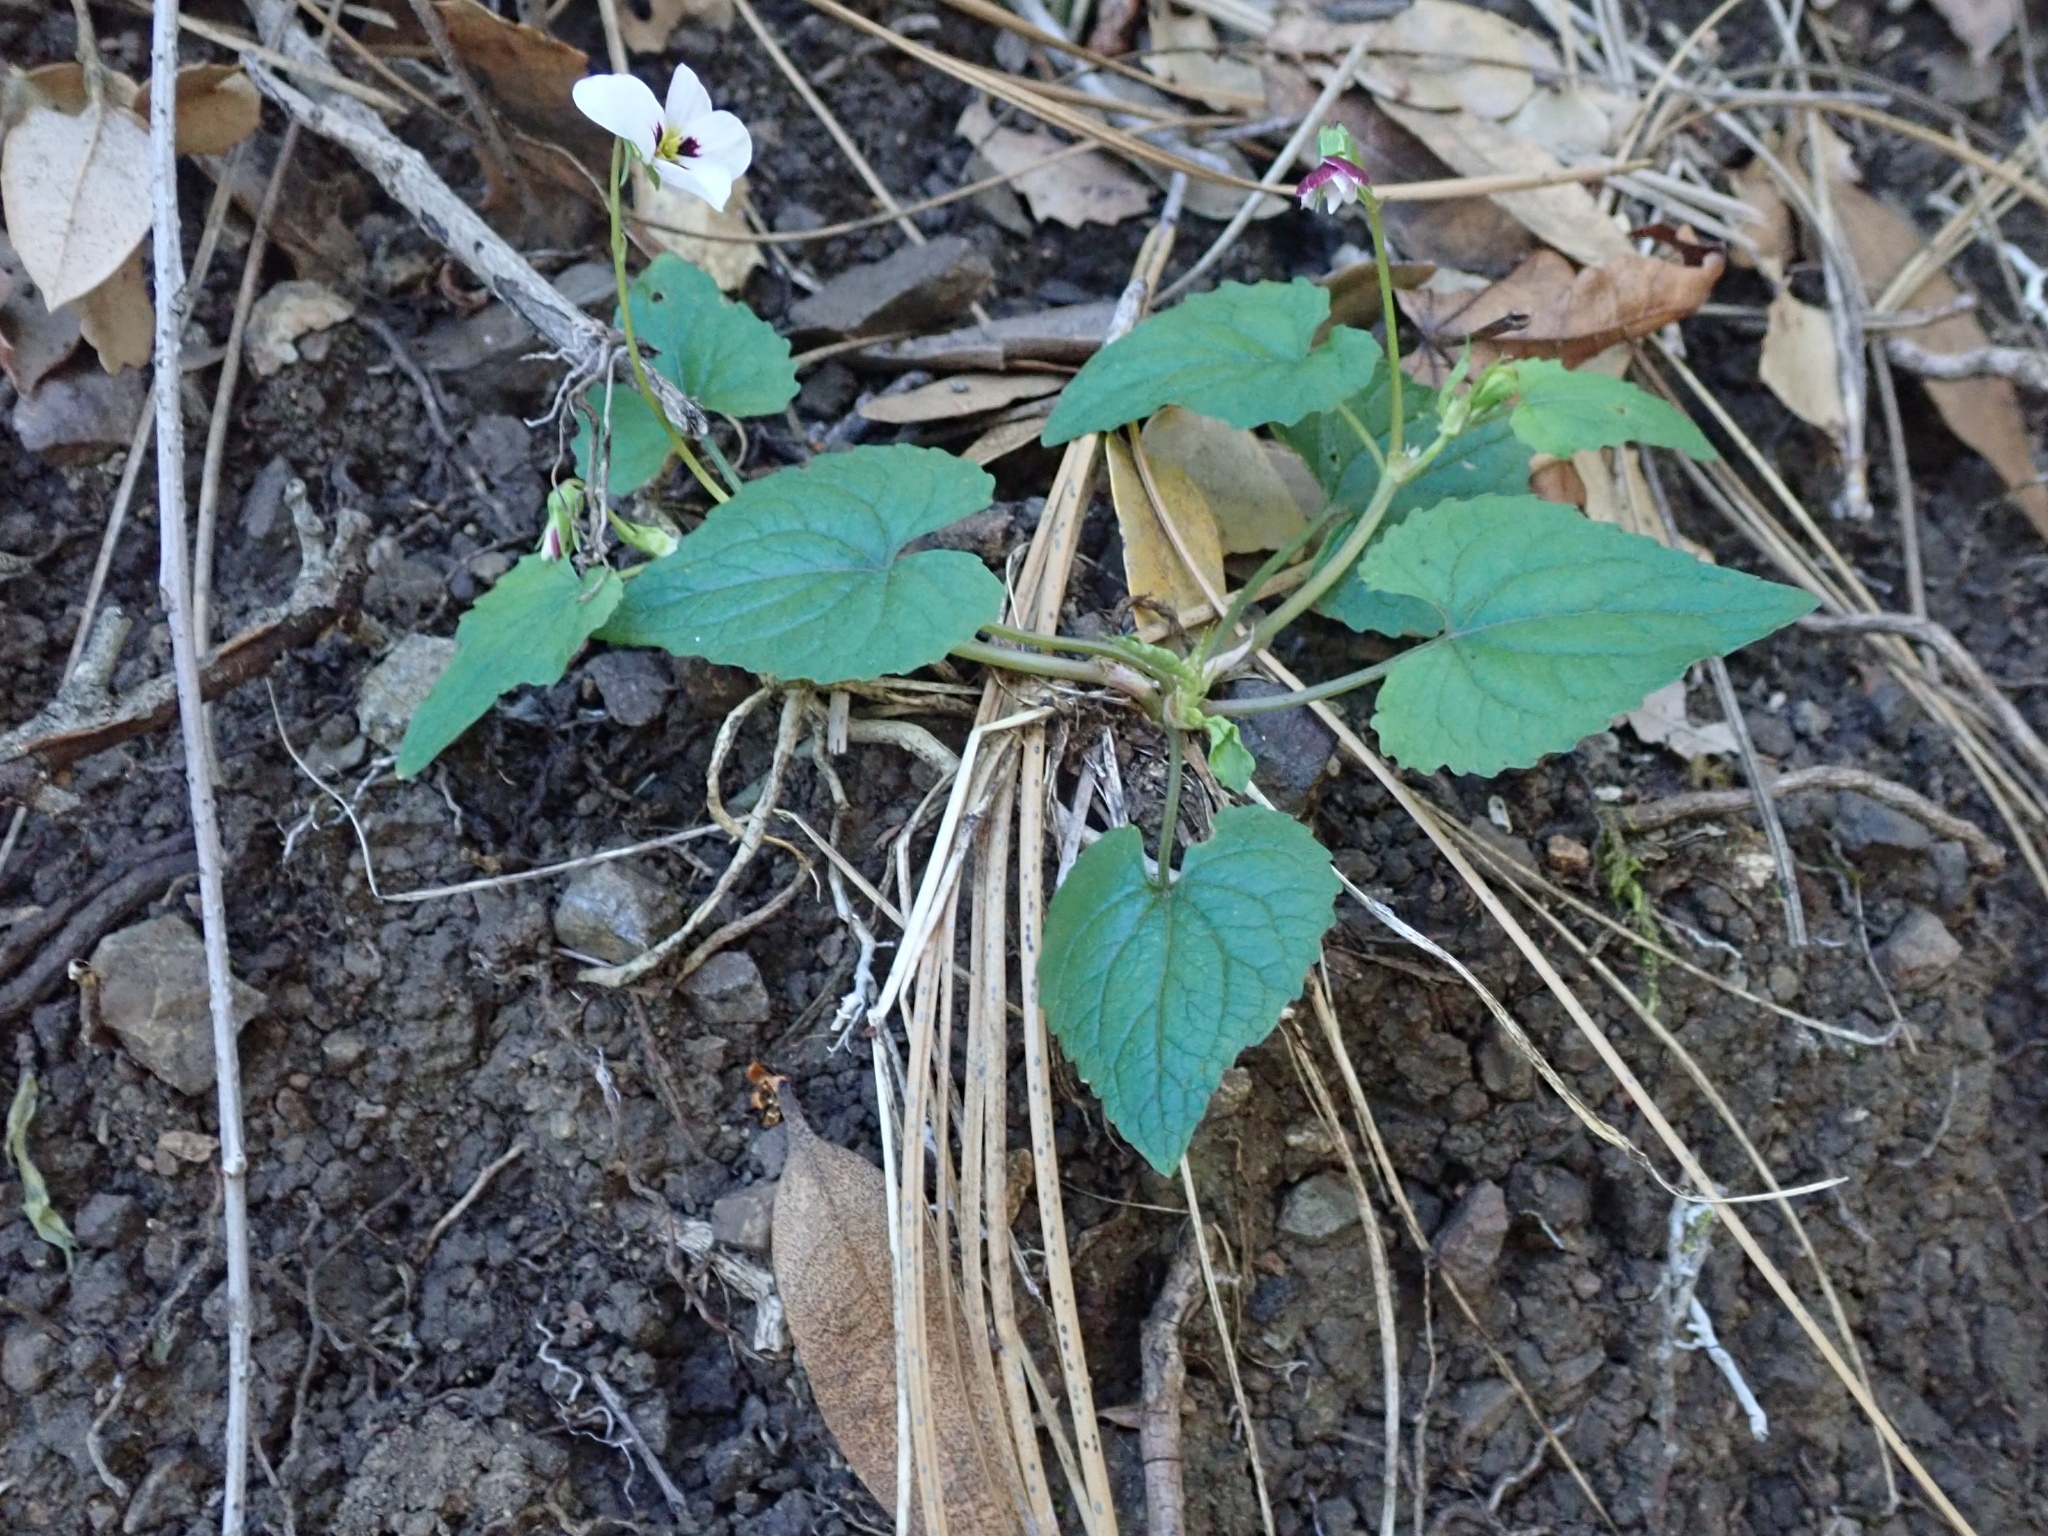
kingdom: Plantae
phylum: Tracheophyta
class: Magnoliopsida
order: Malpighiales
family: Violaceae
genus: Viola
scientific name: Viola ocellata
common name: Western heart's ease
